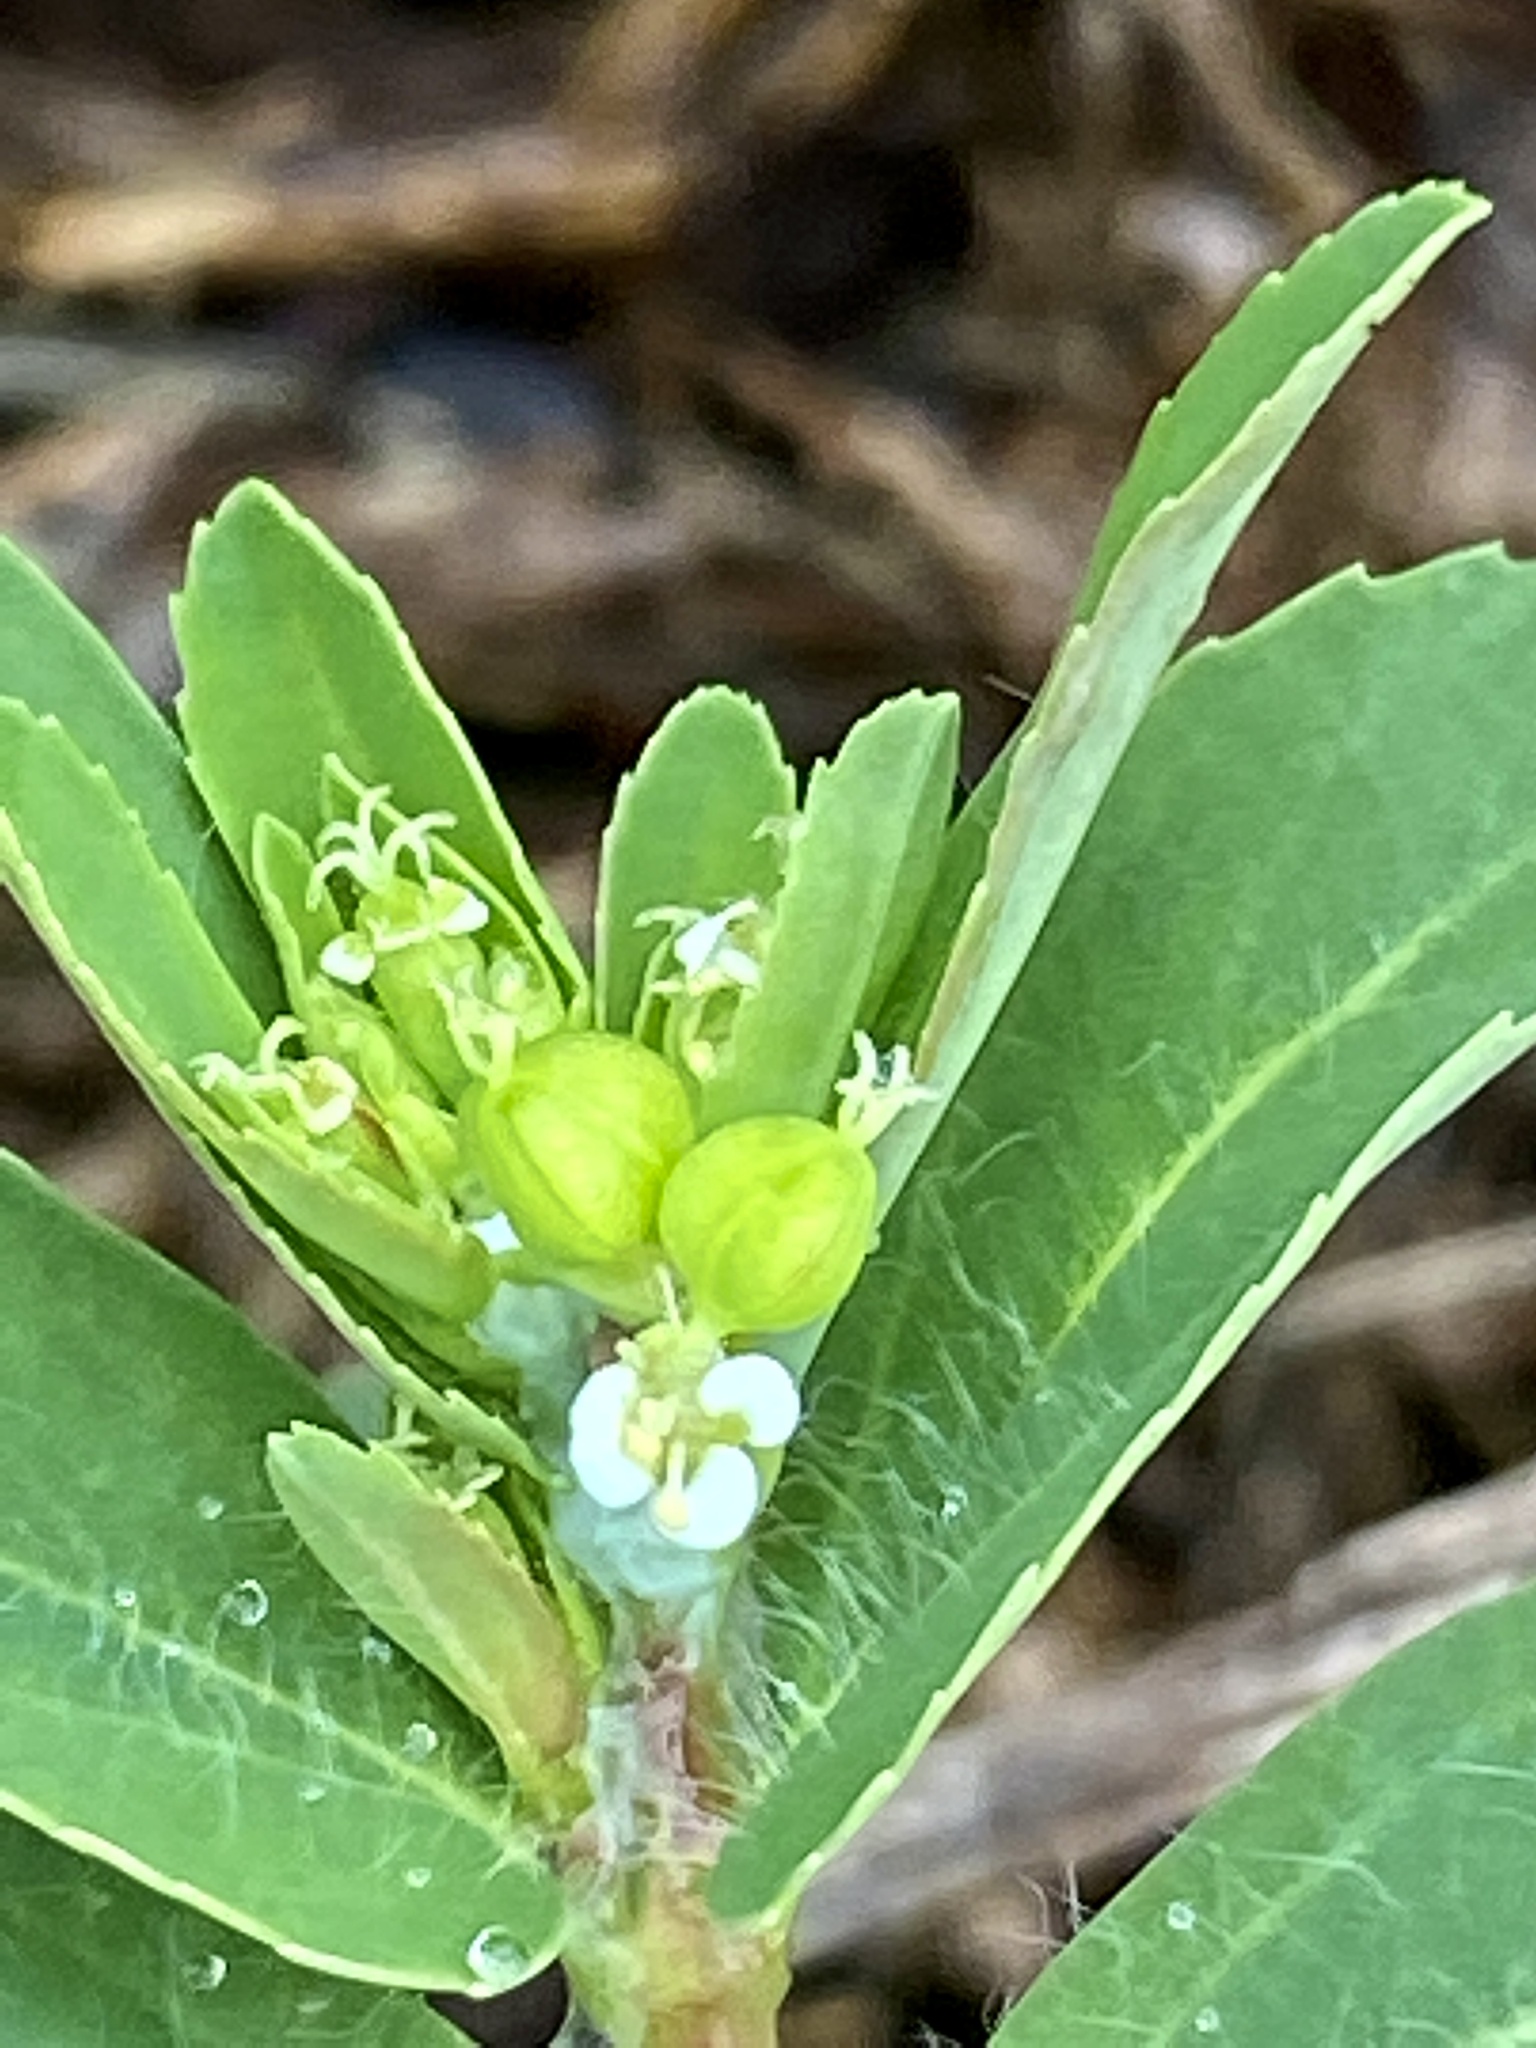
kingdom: Plantae
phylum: Tracheophyta
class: Magnoliopsida
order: Malpighiales
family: Euphorbiaceae
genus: Euphorbia
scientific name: Euphorbia nutans
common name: Eyebane
